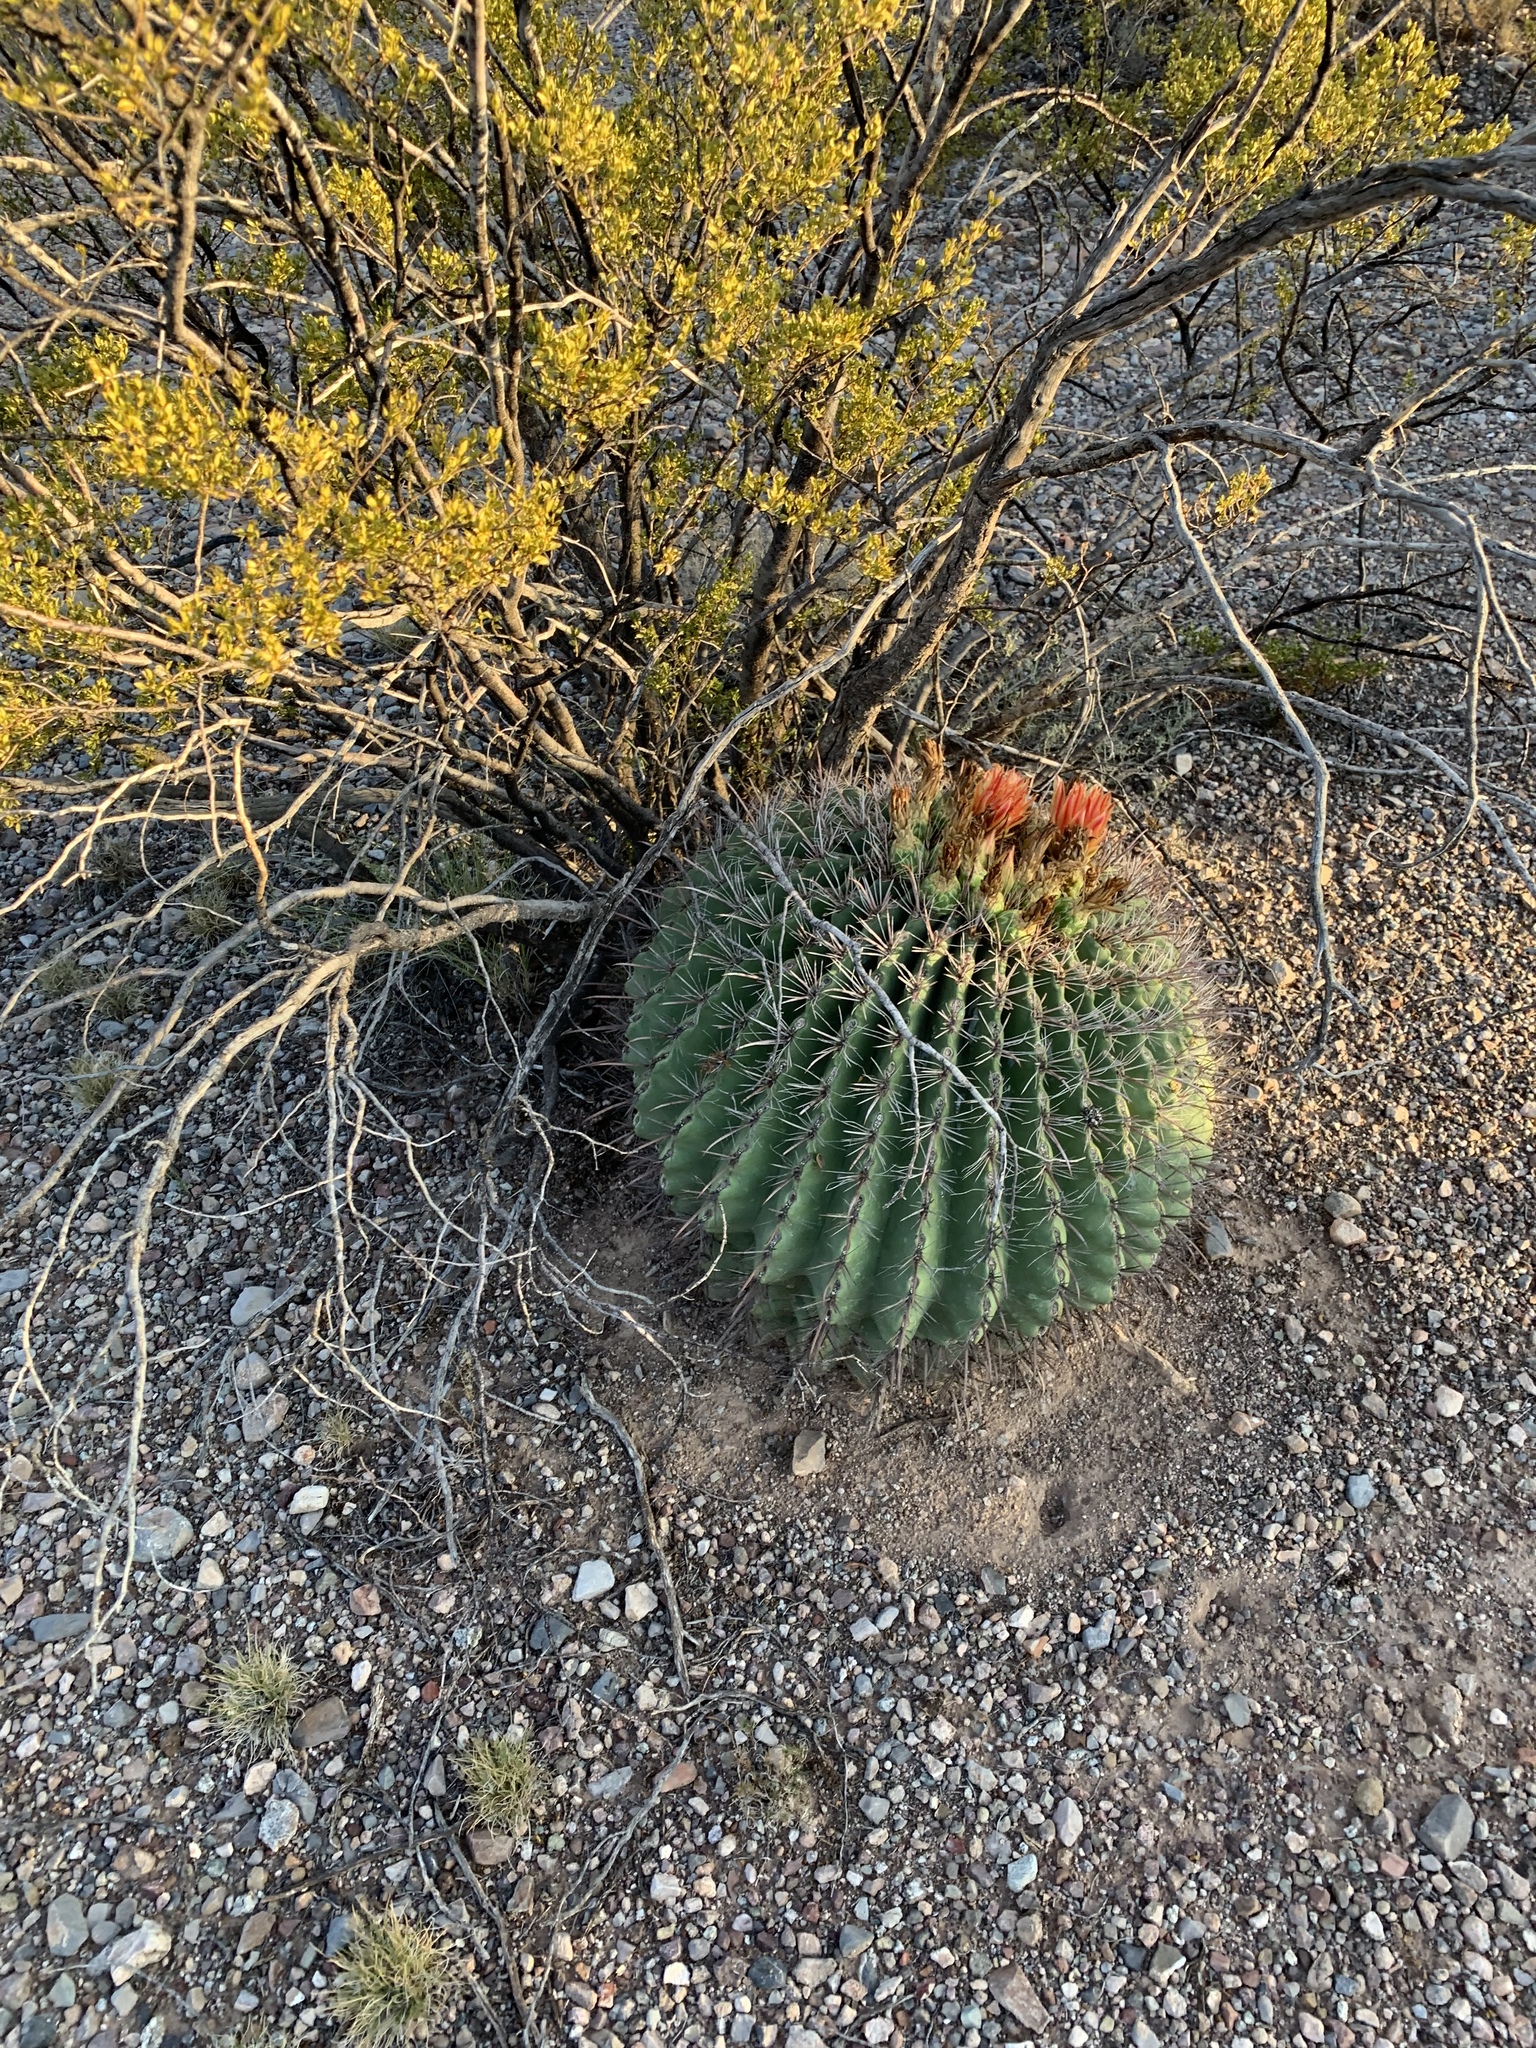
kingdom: Plantae
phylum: Tracheophyta
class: Magnoliopsida
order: Caryophyllales
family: Cactaceae
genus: Ferocactus
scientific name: Ferocactus wislizeni
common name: Candy barrel cactus
